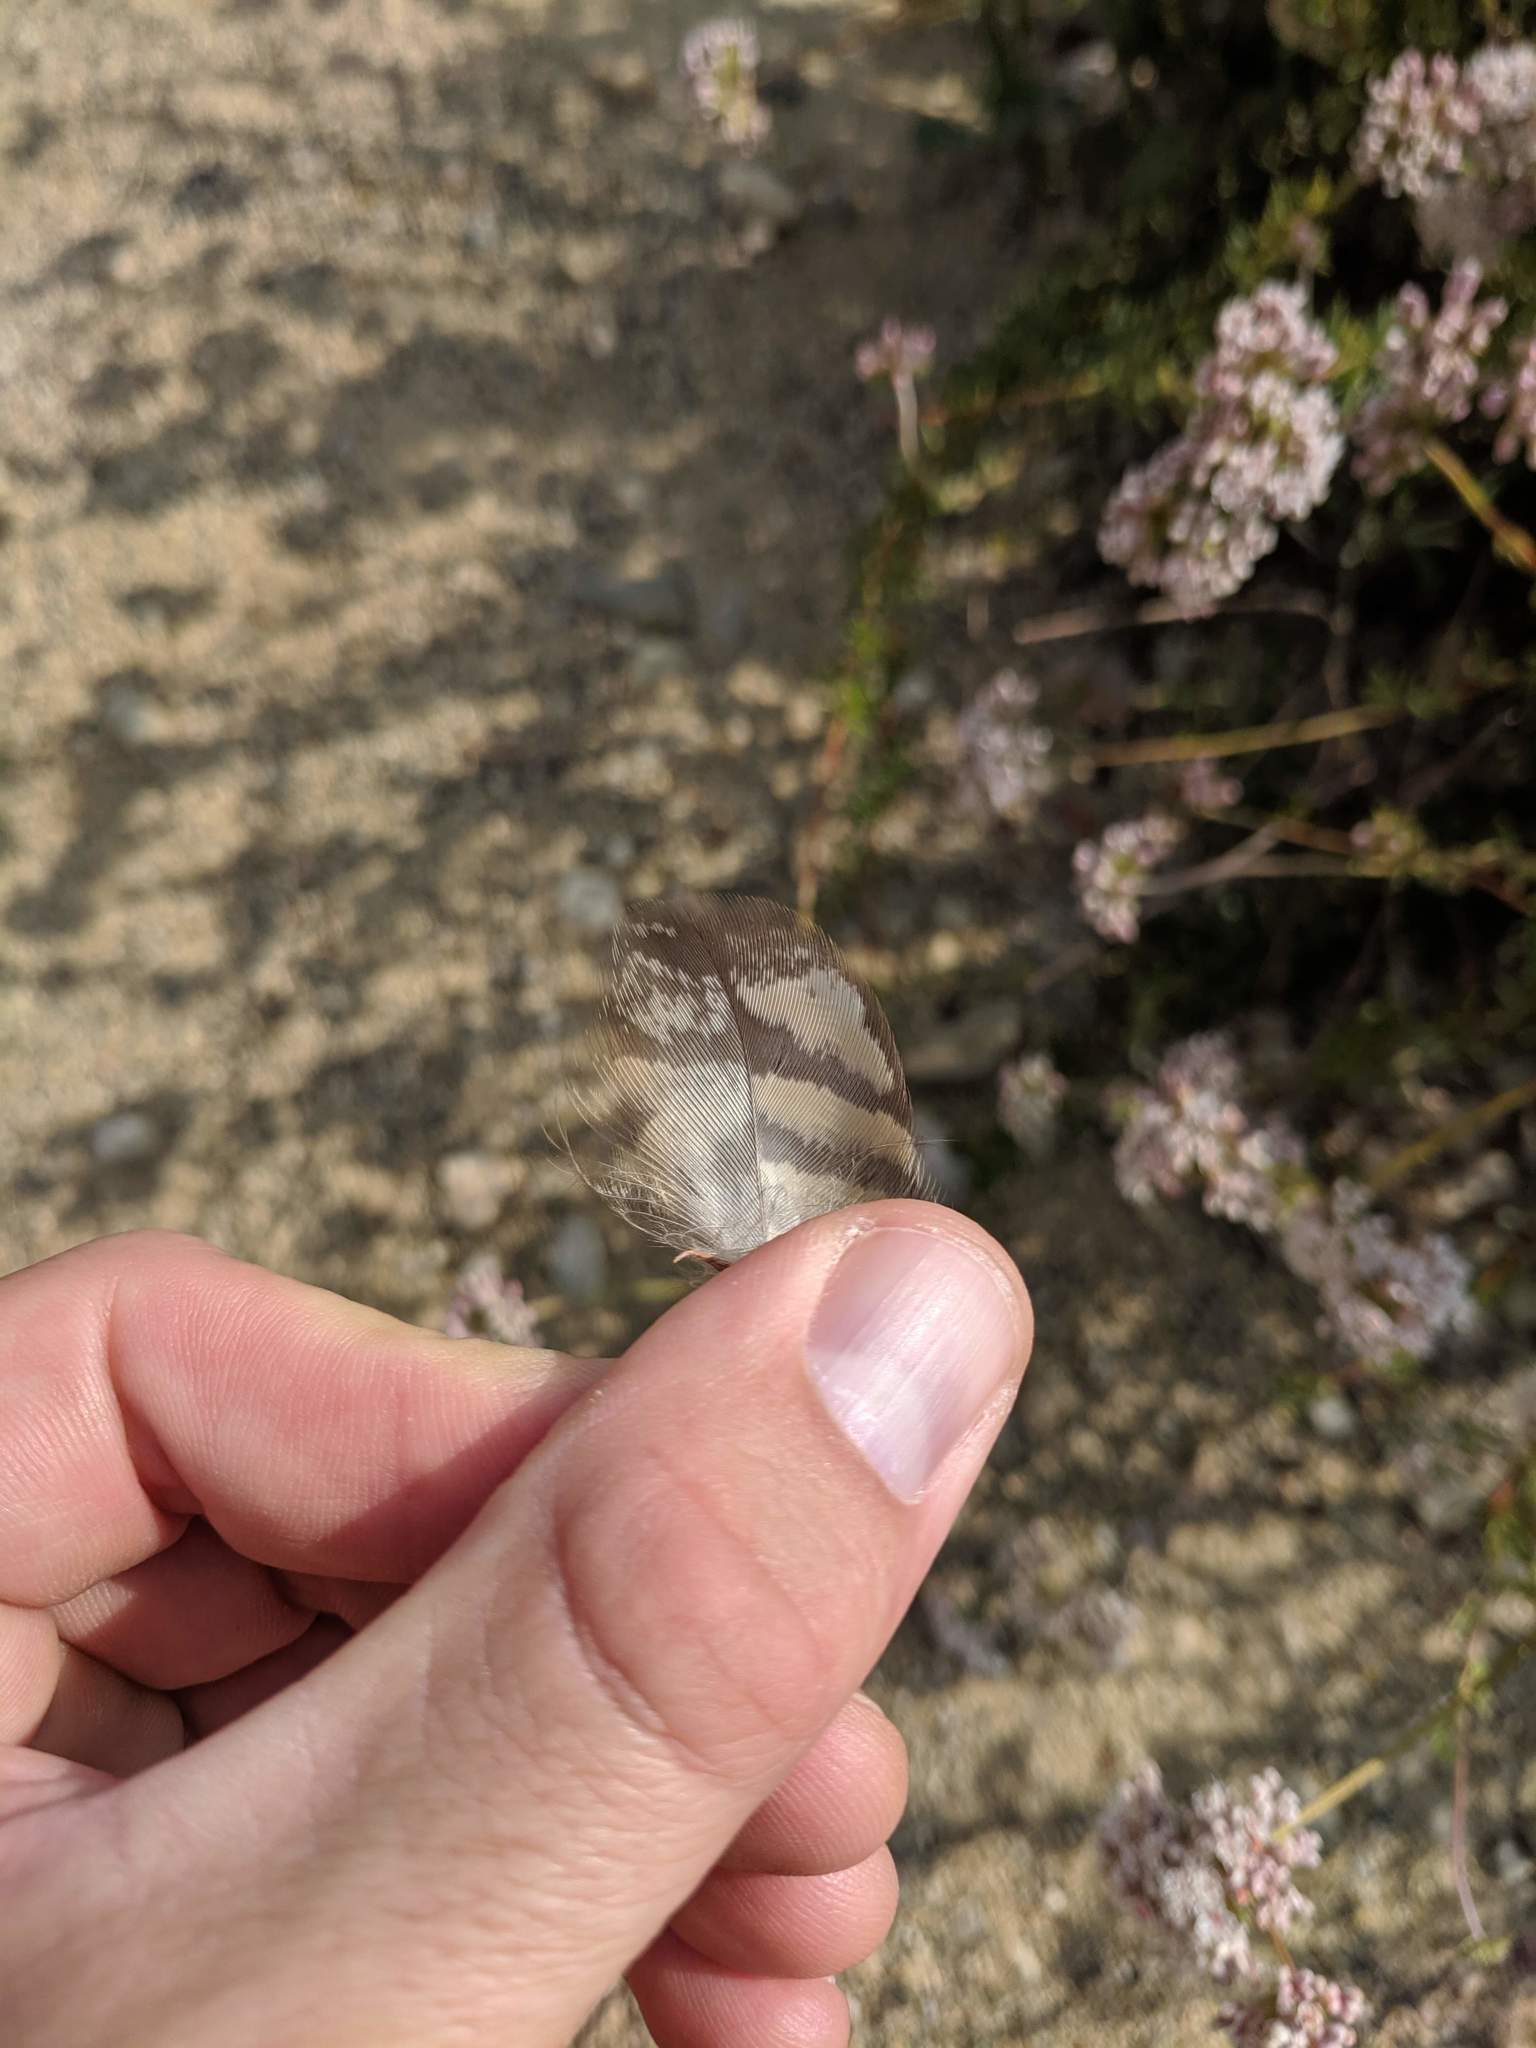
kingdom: Animalia
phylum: Chordata
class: Aves
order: Strigiformes
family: Strigidae
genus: Bubo
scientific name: Bubo virginianus
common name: Great horned owl
